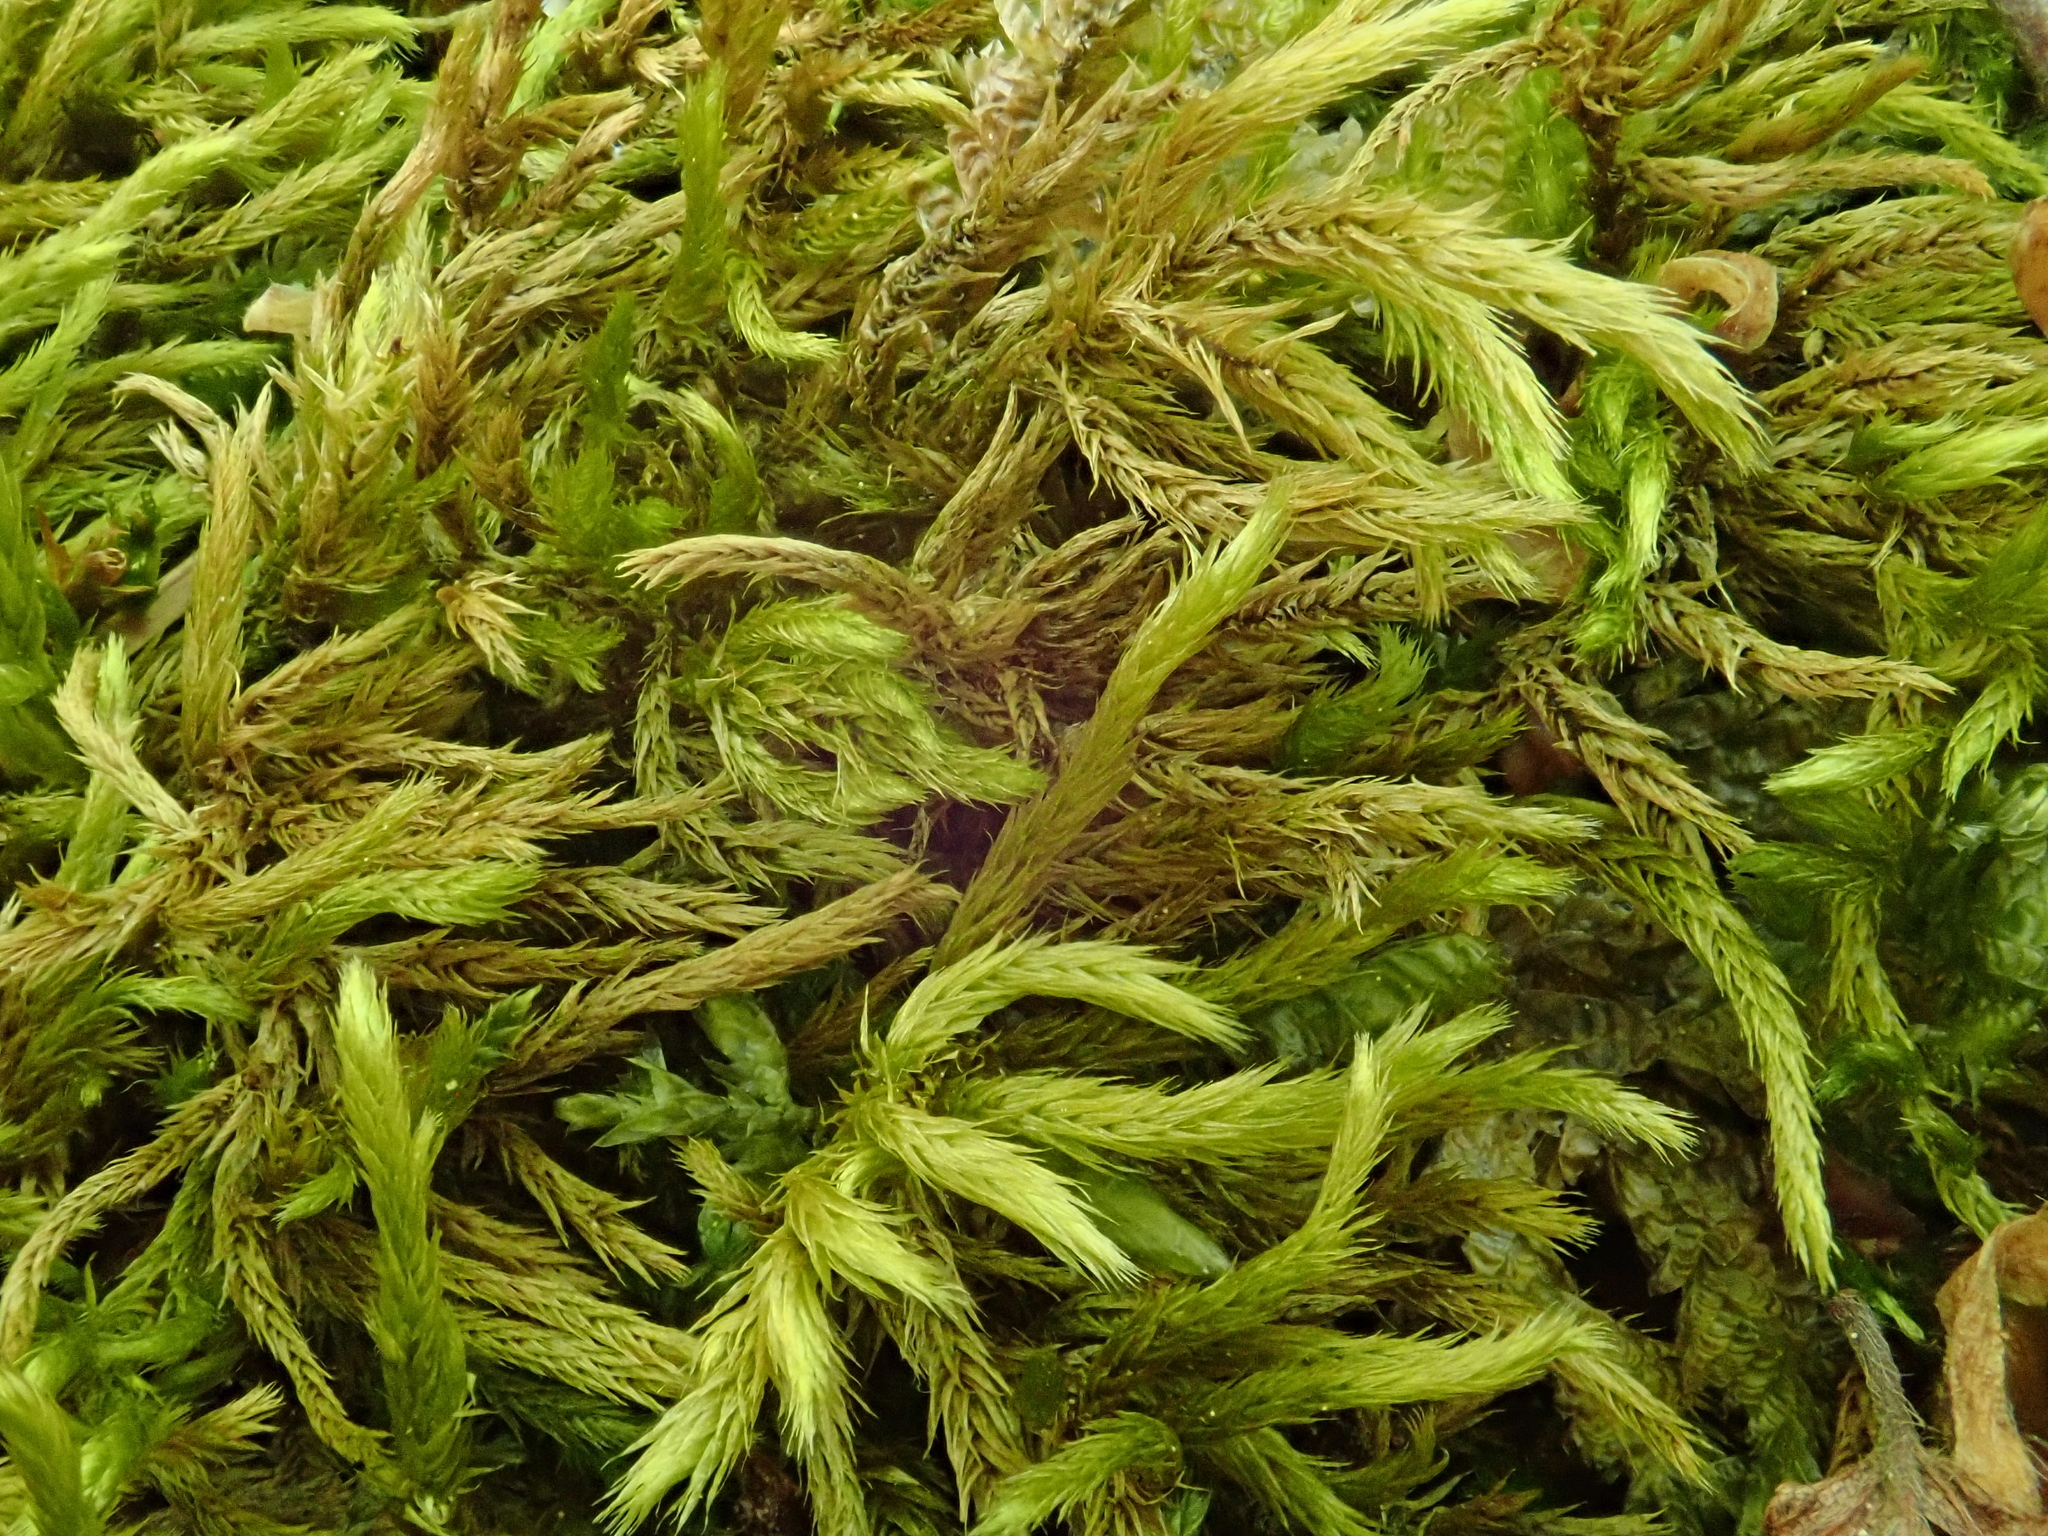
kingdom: Plantae
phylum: Bryophyta
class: Bryopsida
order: Hypnales
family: Brachytheciaceae
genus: Homalothecium
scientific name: Homalothecium lutescens
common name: Yellow feather-moss
